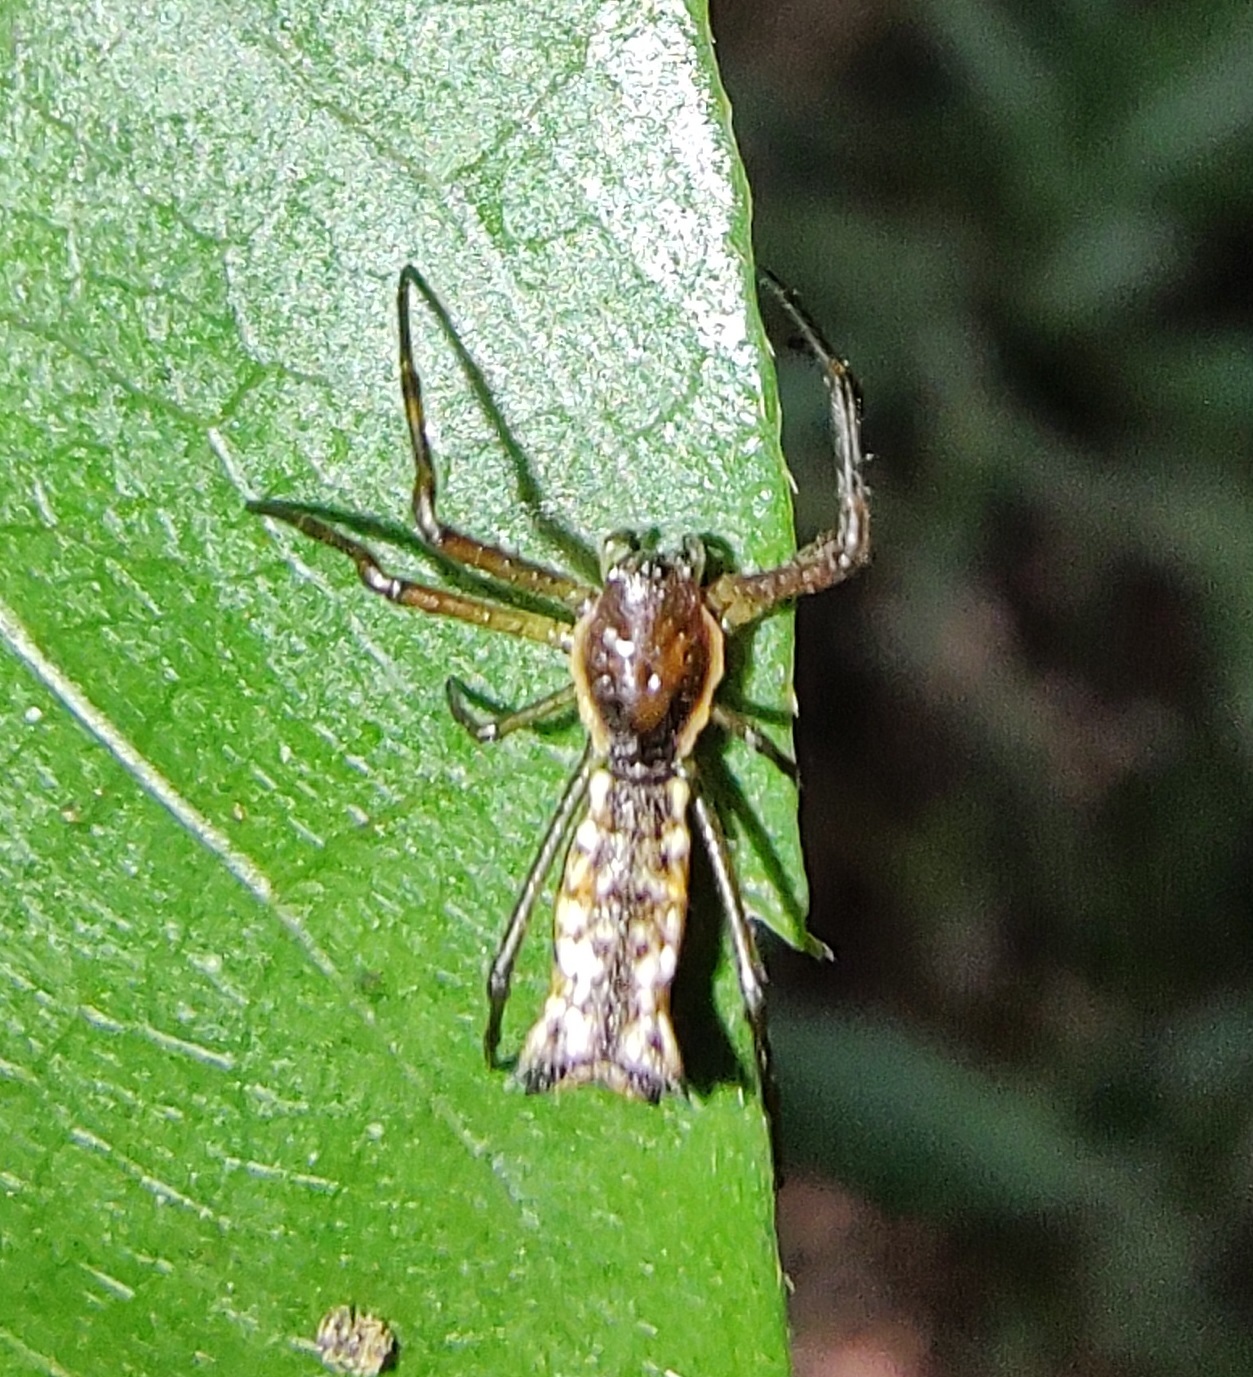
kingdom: Animalia
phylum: Arthropoda
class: Arachnida
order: Araneae
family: Araneidae
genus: Micrathena
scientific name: Micrathena nigrichelis
